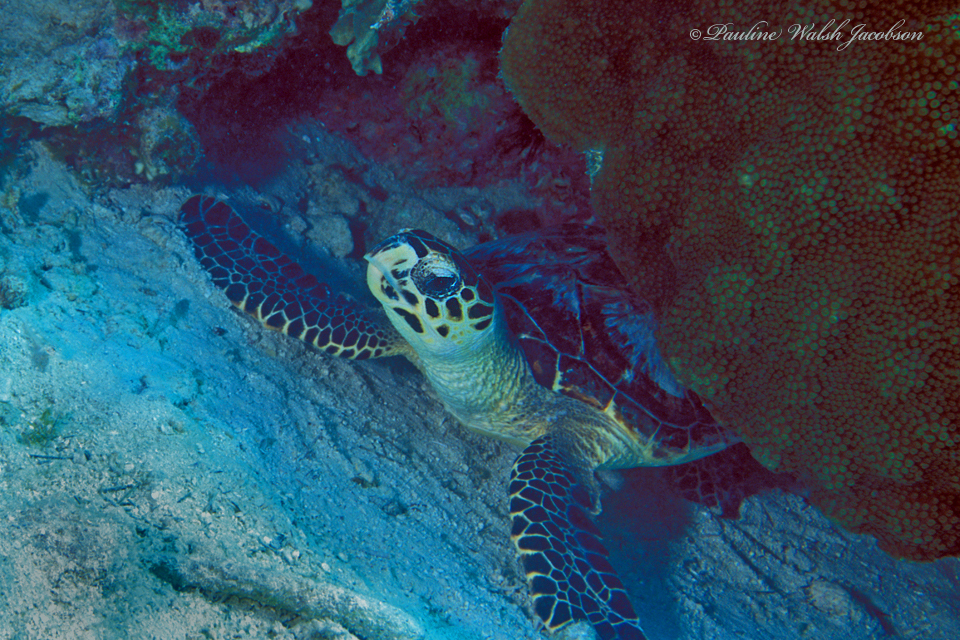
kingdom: Animalia
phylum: Chordata
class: Testudines
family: Cheloniidae
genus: Eretmochelys
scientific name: Eretmochelys imbricata
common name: Hawksbill turtle
